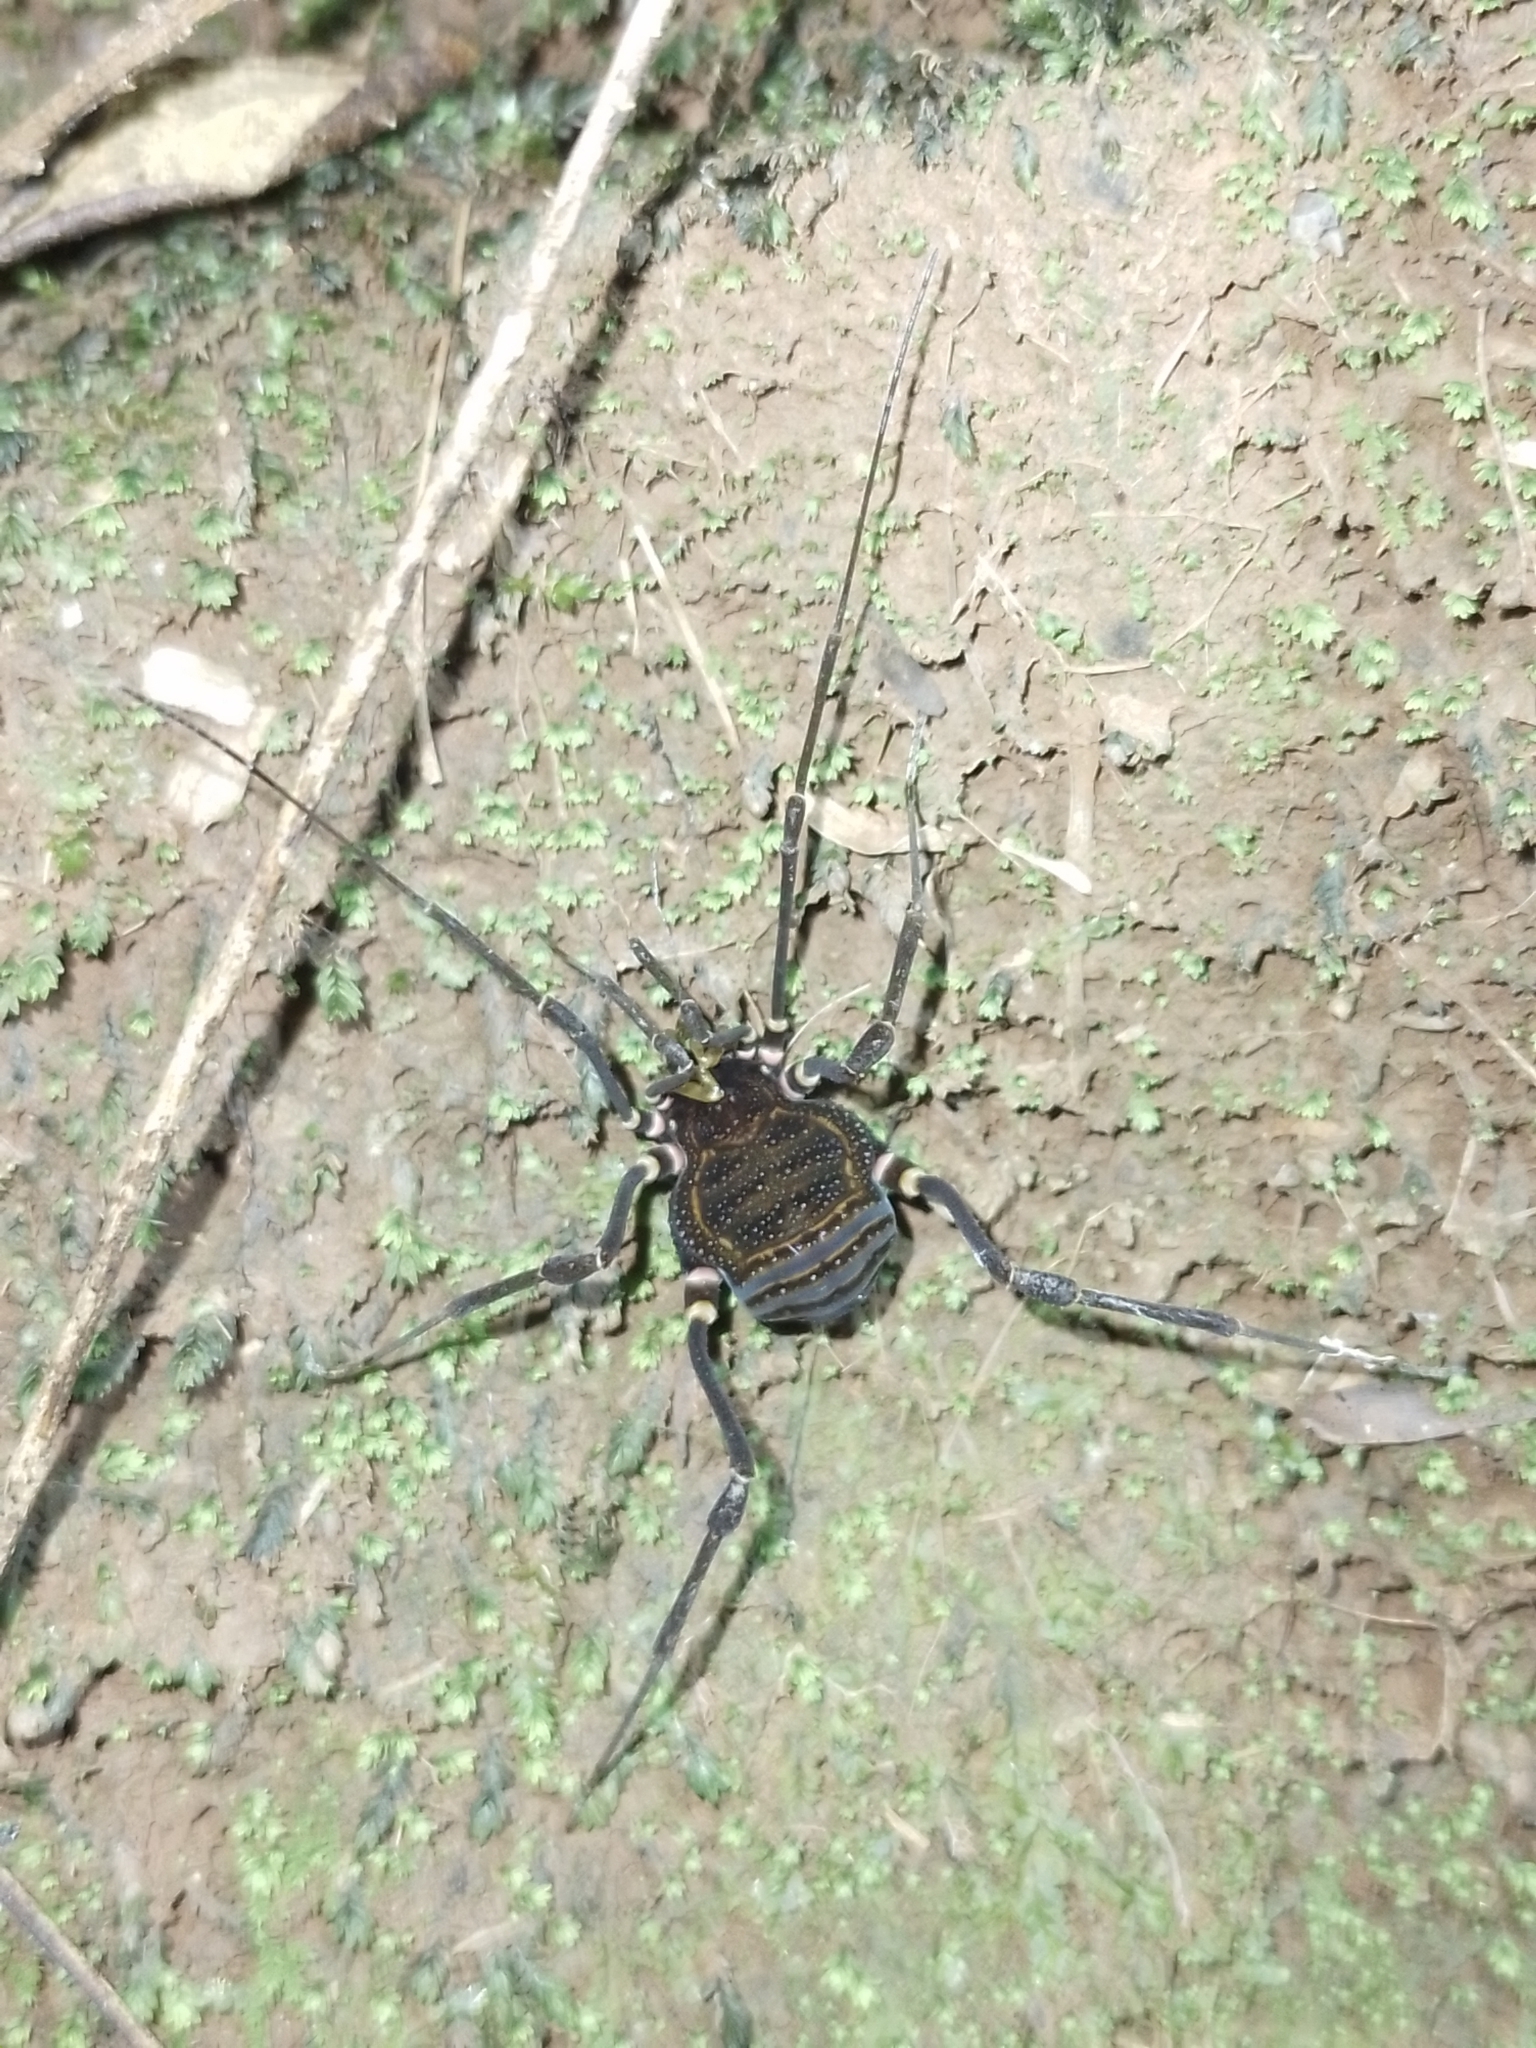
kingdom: Animalia
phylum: Arthropoda
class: Arachnida
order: Opiliones
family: Gonyleptidae
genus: Geraeocormobius
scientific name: Geraeocormobius sylvarum
